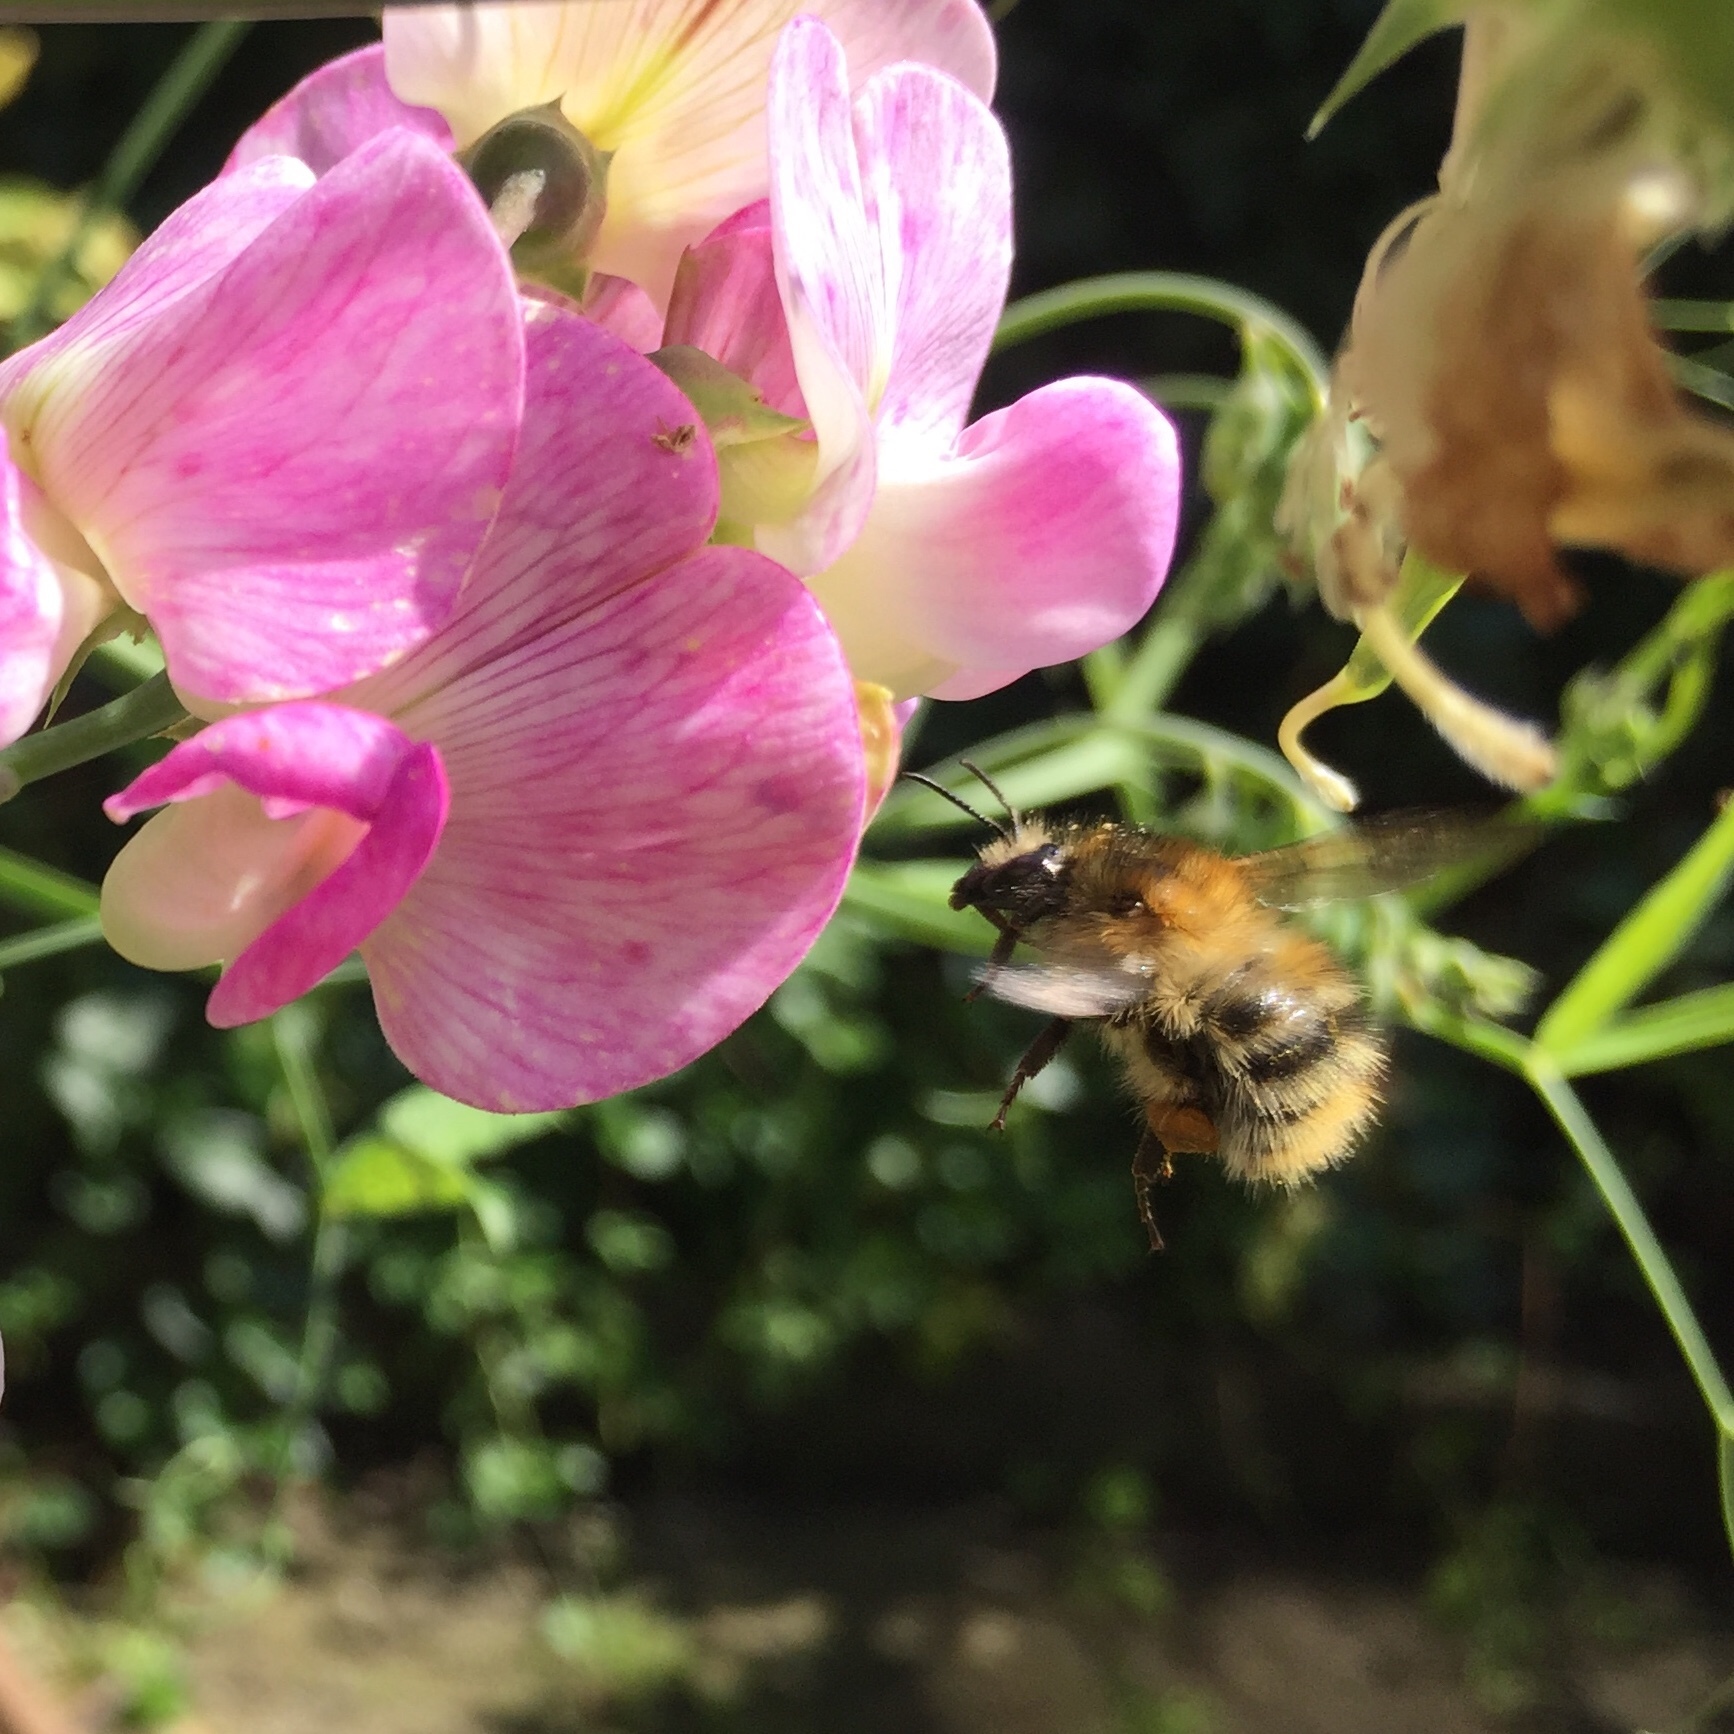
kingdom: Animalia
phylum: Arthropoda
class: Insecta
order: Hymenoptera
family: Apidae
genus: Bombus
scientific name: Bombus pascuorum
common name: Common carder bee
